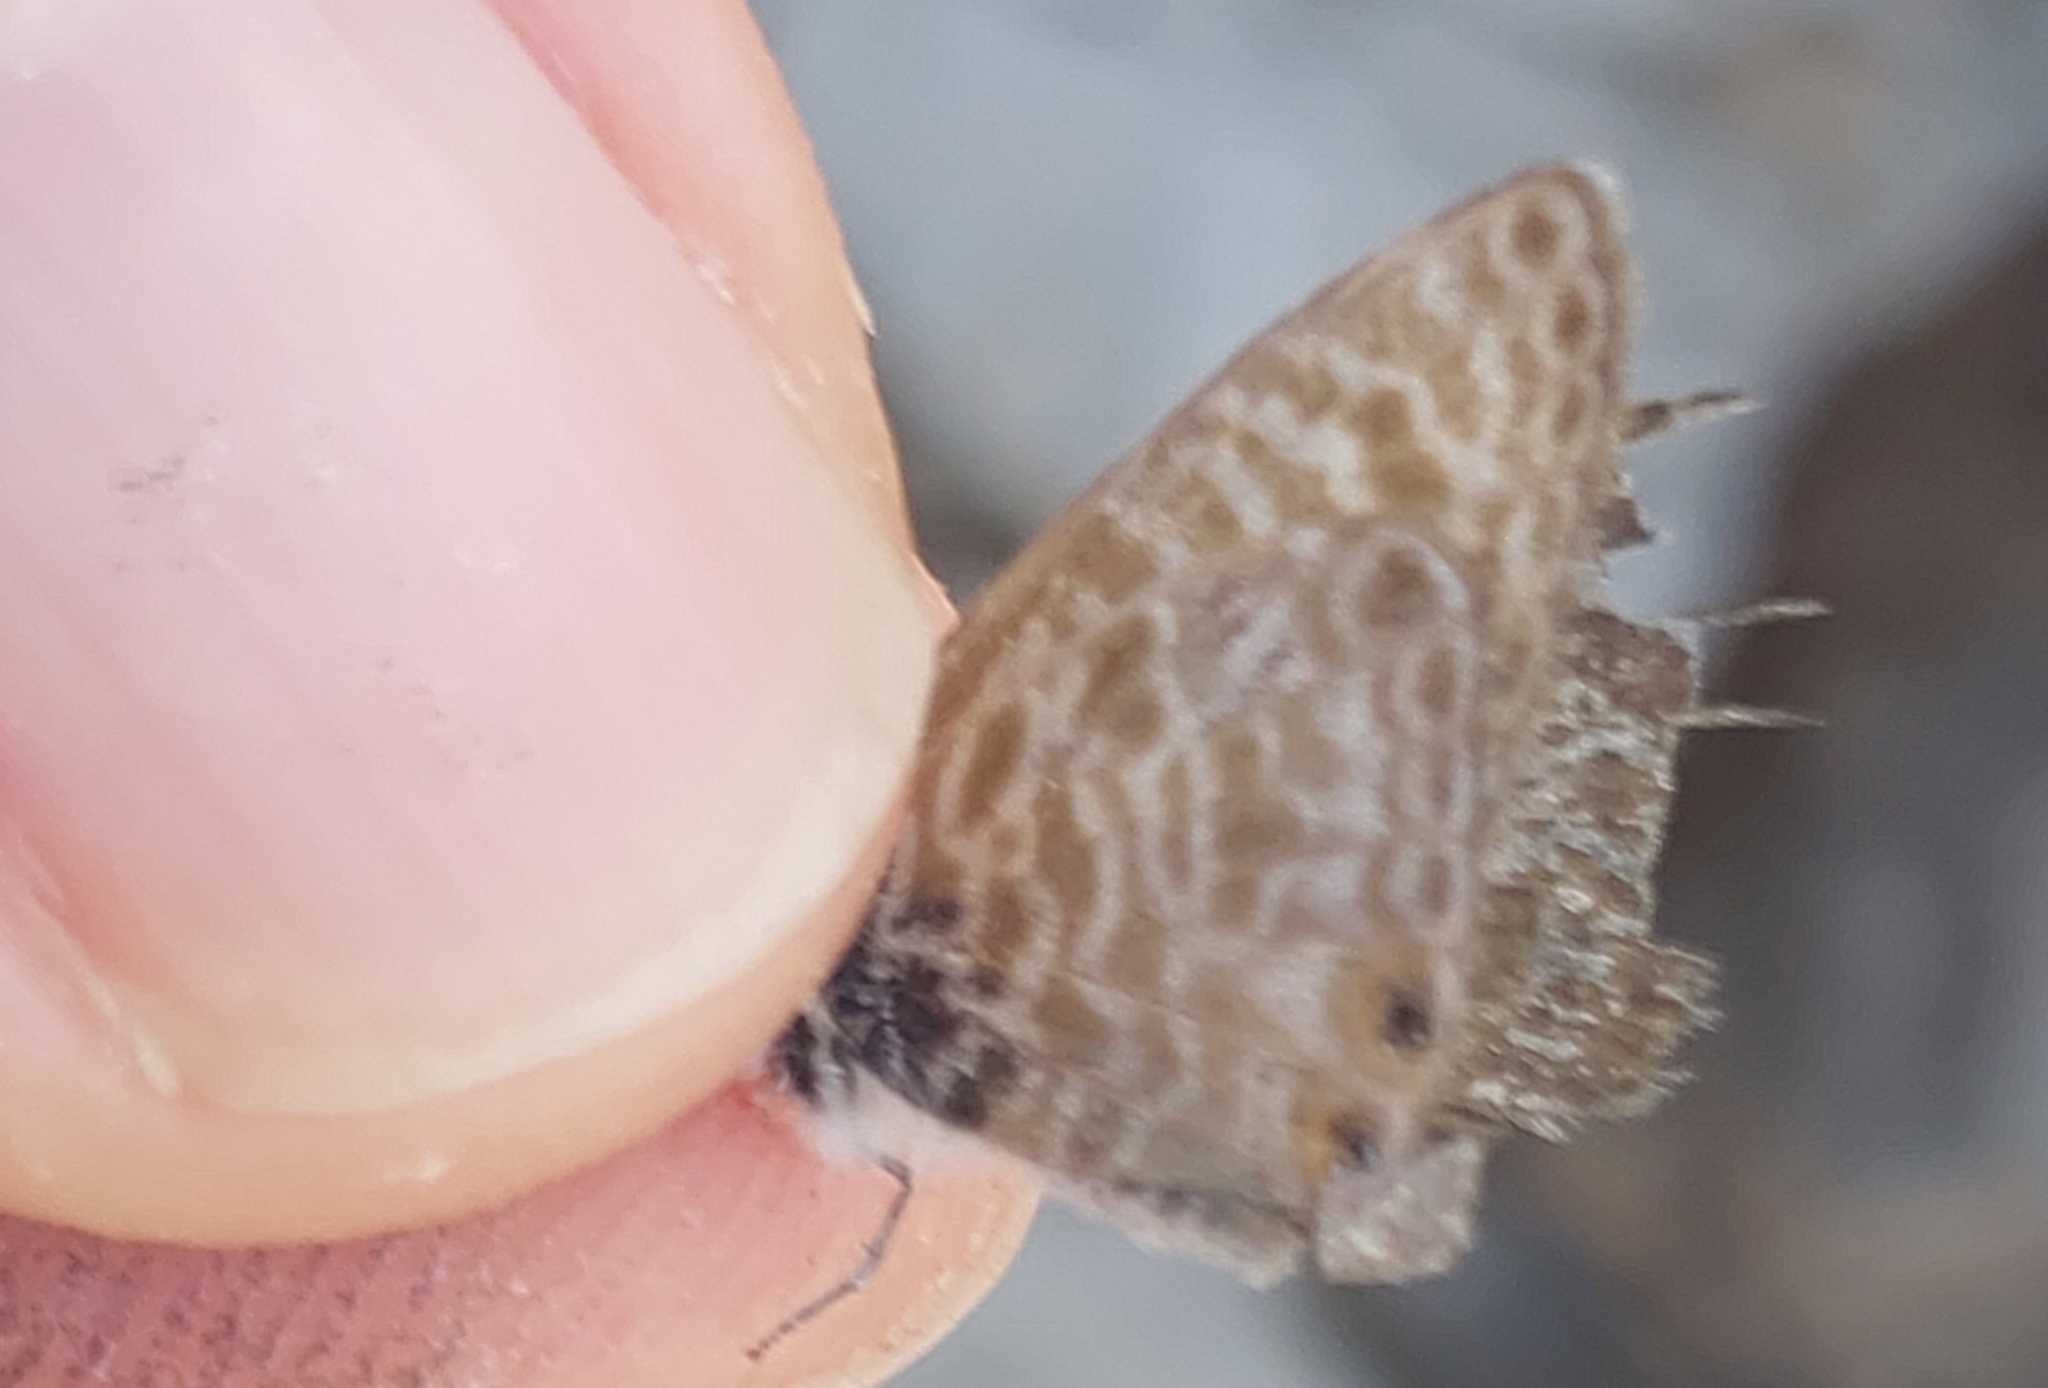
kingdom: Animalia
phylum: Arthropoda
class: Insecta
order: Lepidoptera
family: Lycaenidae
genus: Leptotes
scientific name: Leptotes pirithous
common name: Lang's short-tailed blue
